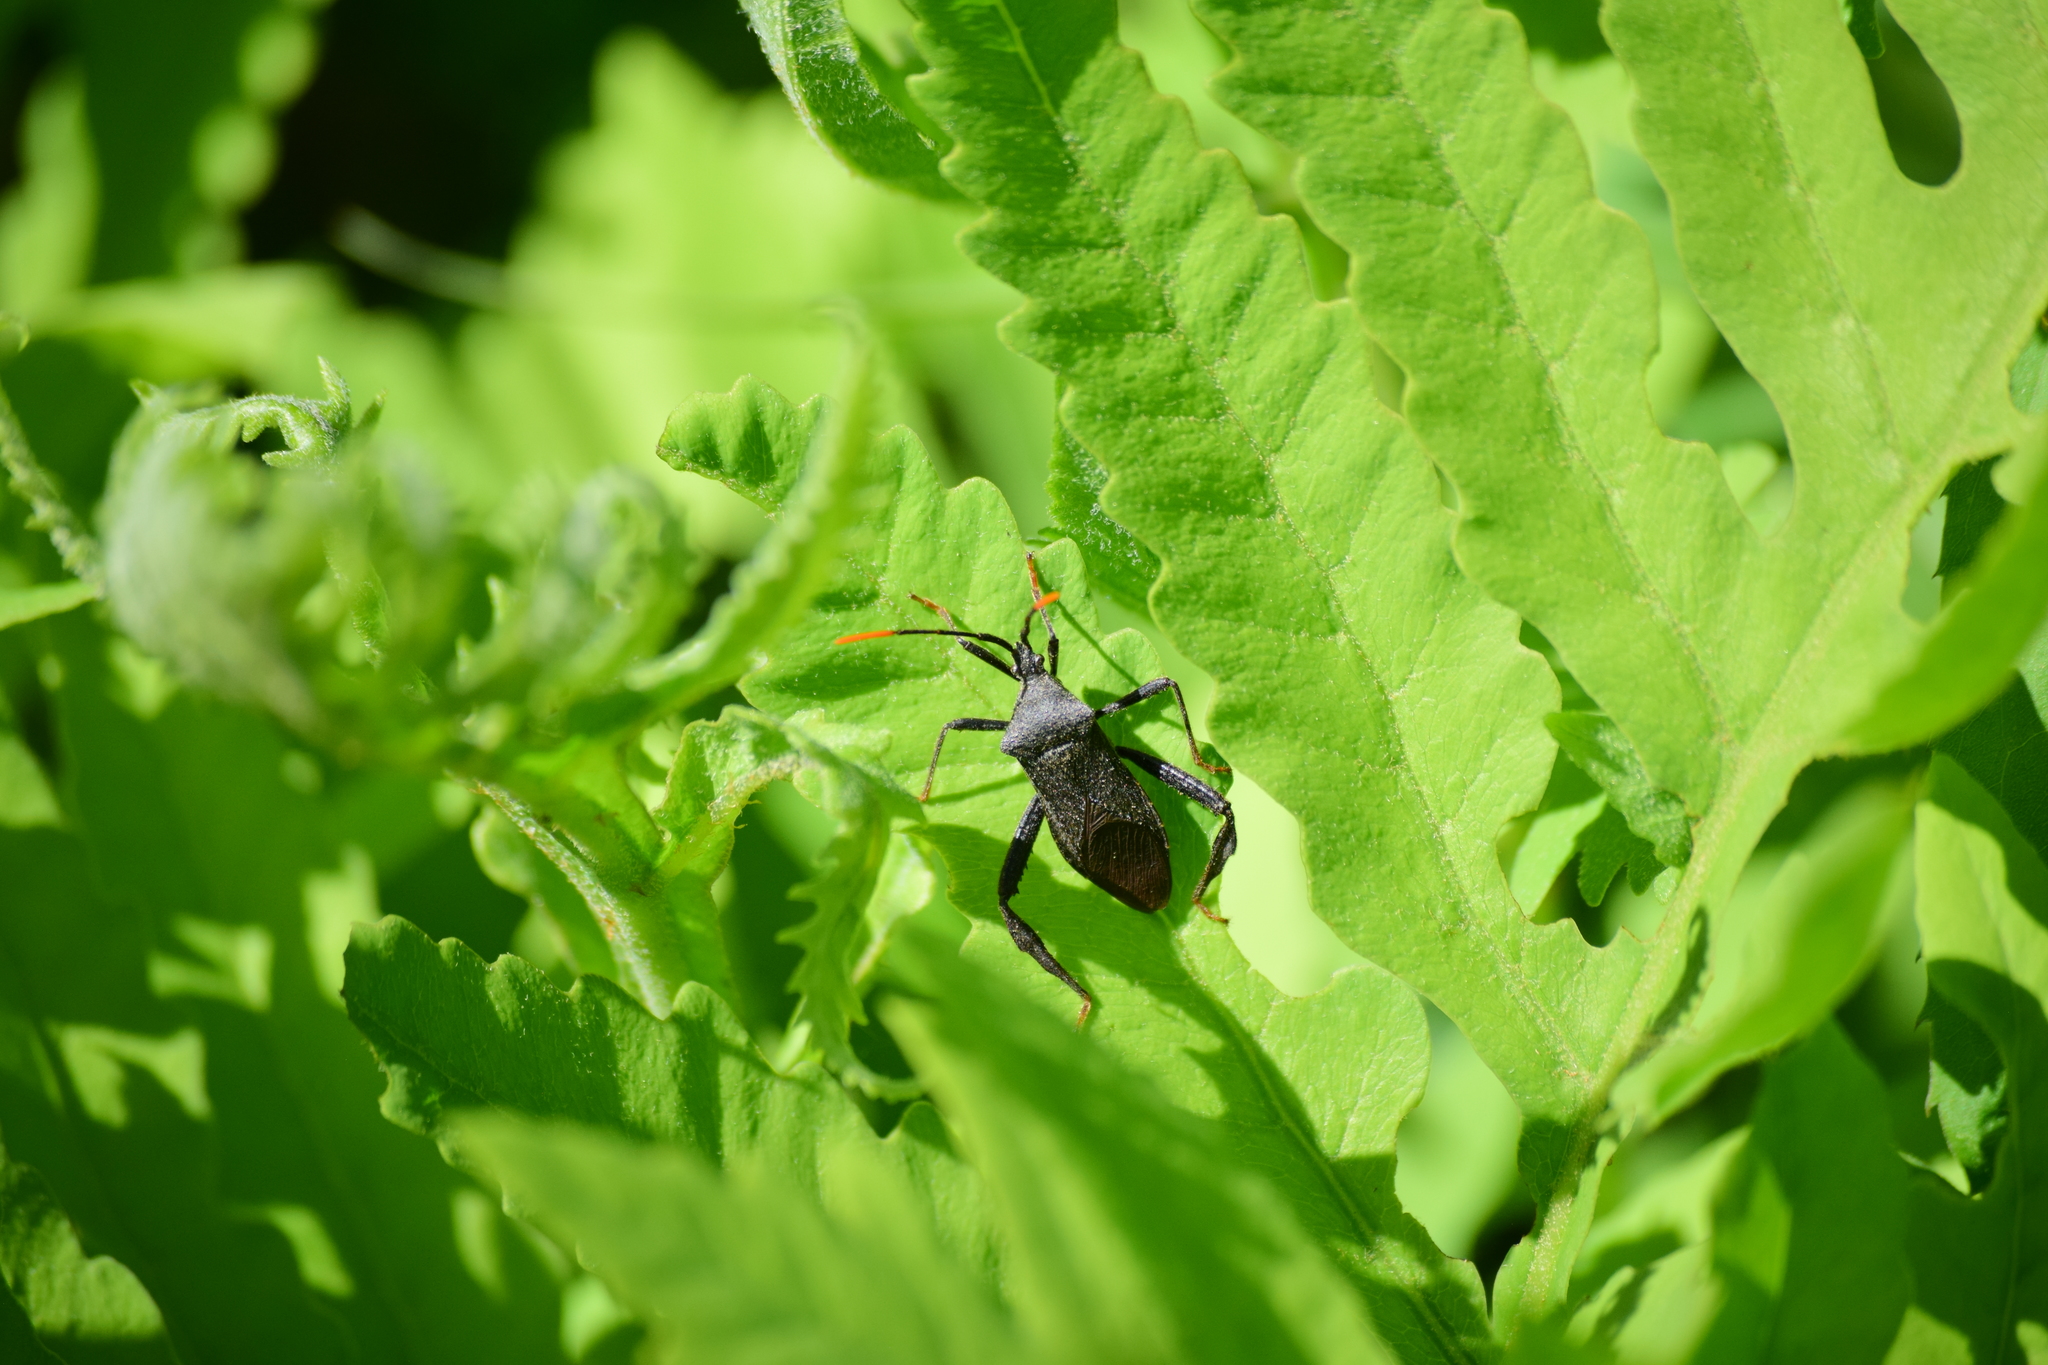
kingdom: Animalia
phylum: Arthropoda
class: Insecta
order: Hemiptera
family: Coreidae
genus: Acanthocephala
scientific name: Acanthocephala terminalis
